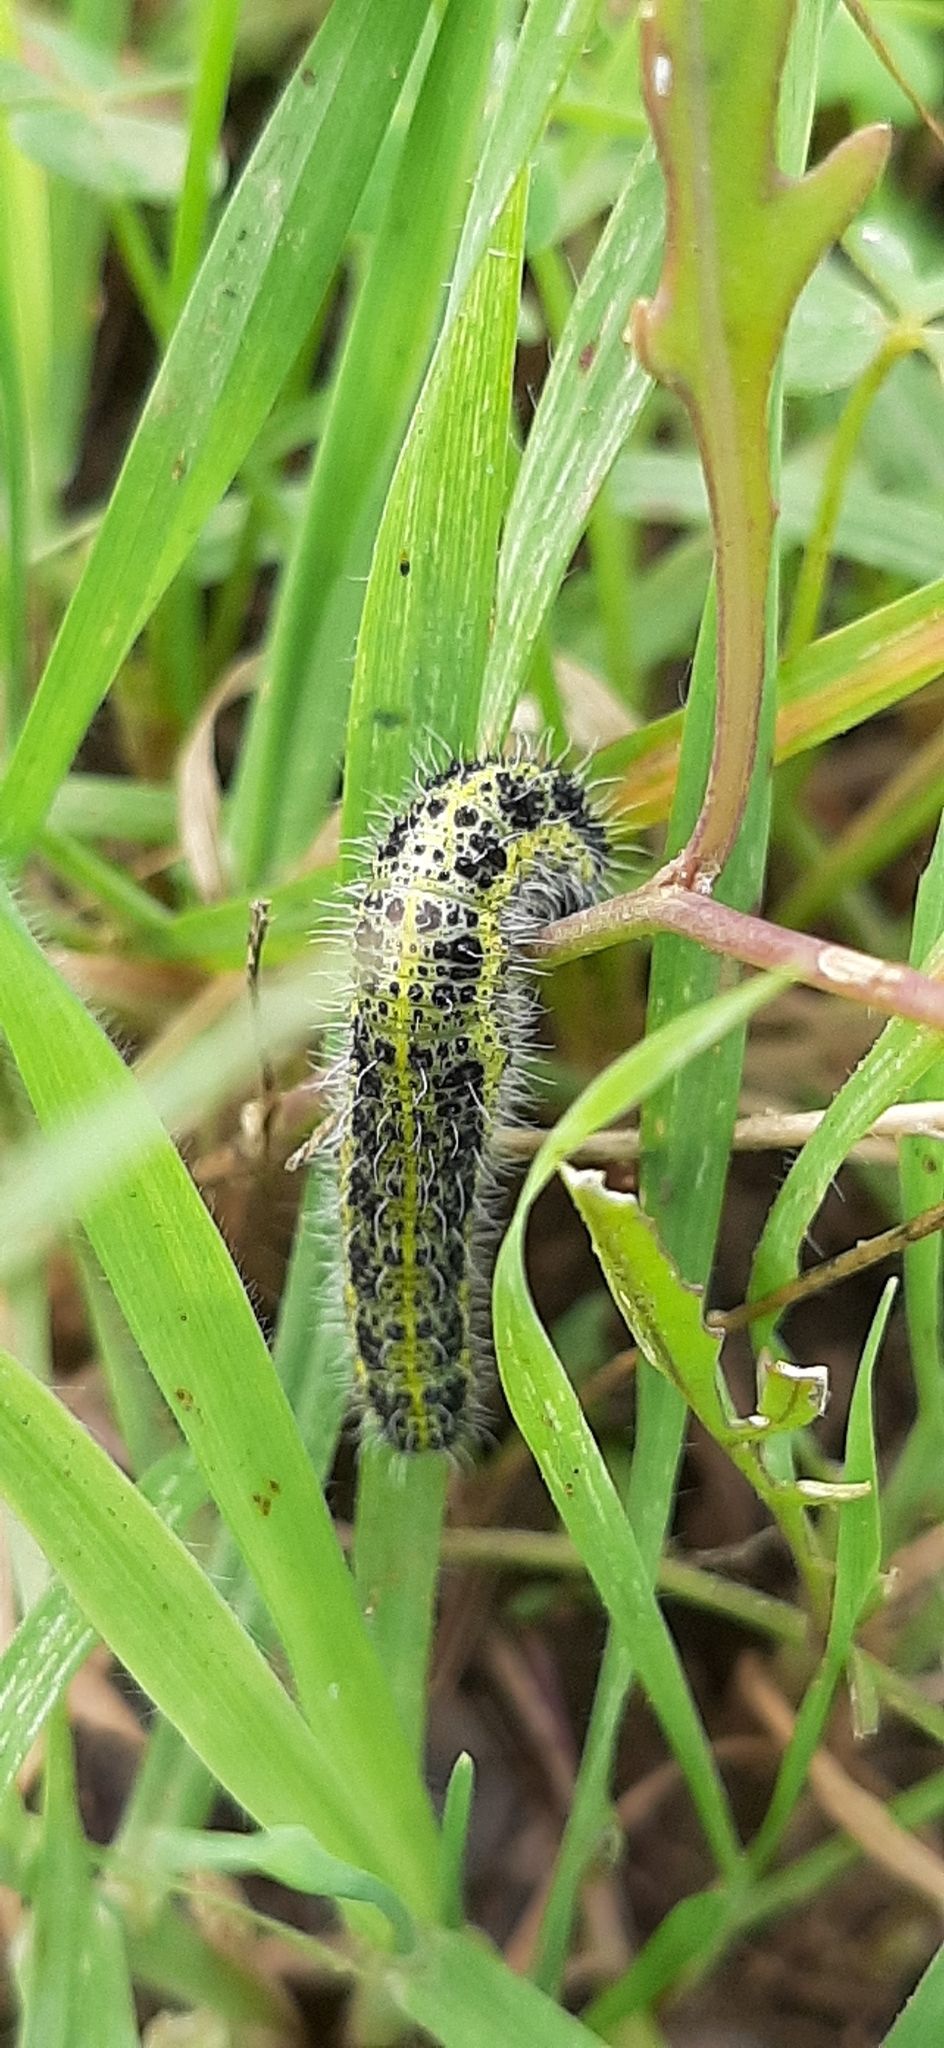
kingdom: Animalia
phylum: Arthropoda
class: Insecta
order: Lepidoptera
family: Pieridae
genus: Pieris
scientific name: Pieris brassicae
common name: Large white
